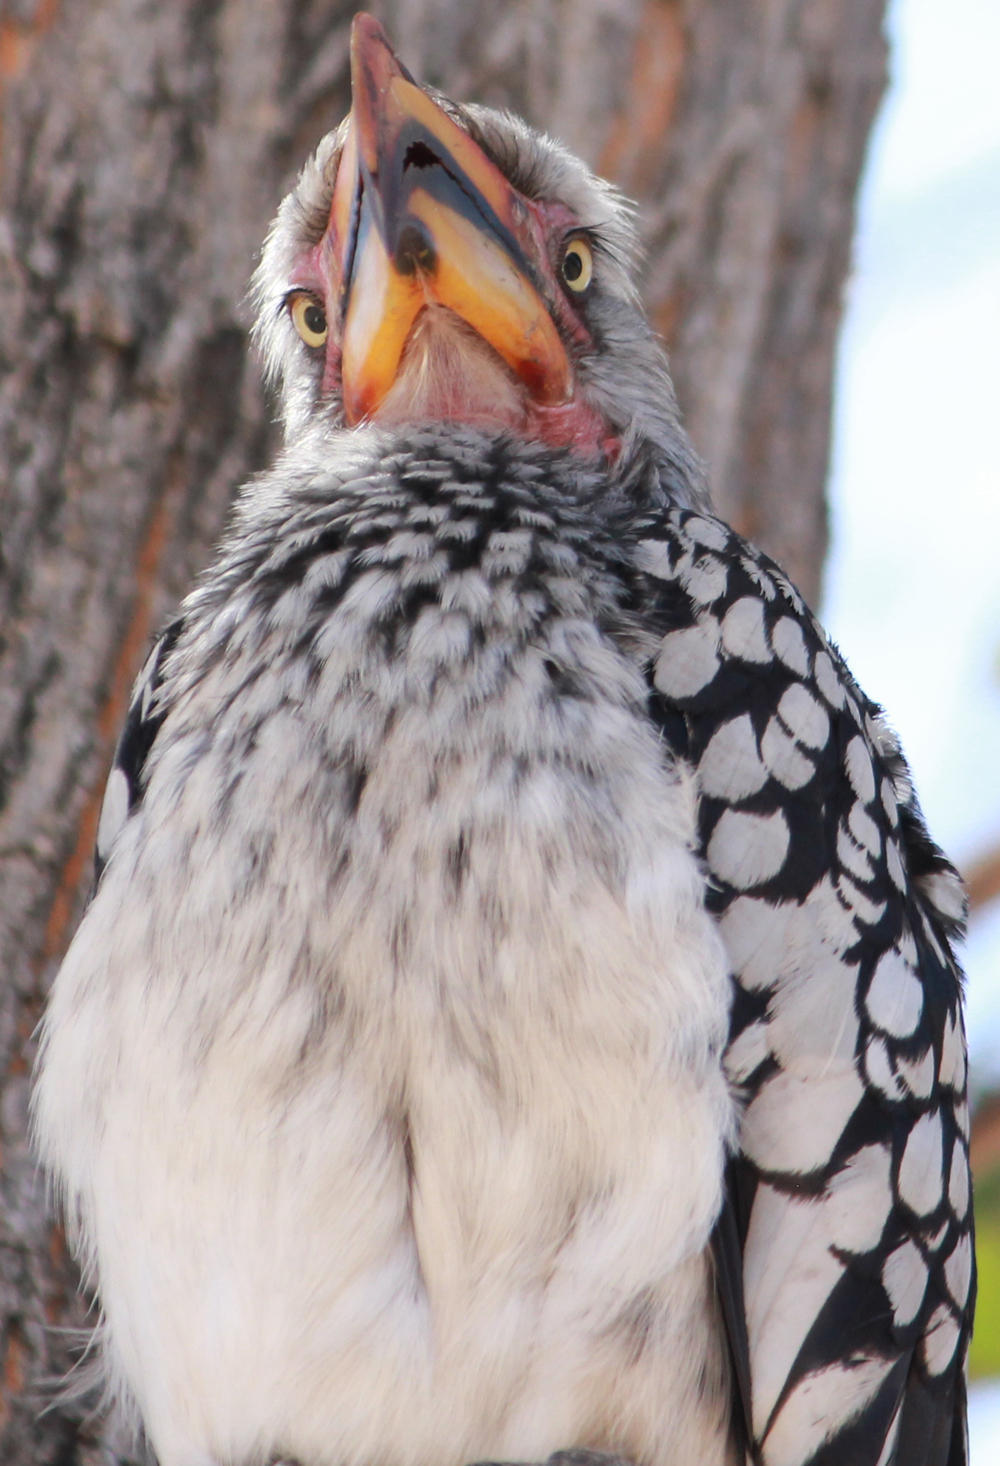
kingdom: Animalia
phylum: Chordata
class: Aves
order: Bucerotiformes
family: Bucerotidae
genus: Tockus
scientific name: Tockus leucomelas
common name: Southern yellow-billed hornbill
